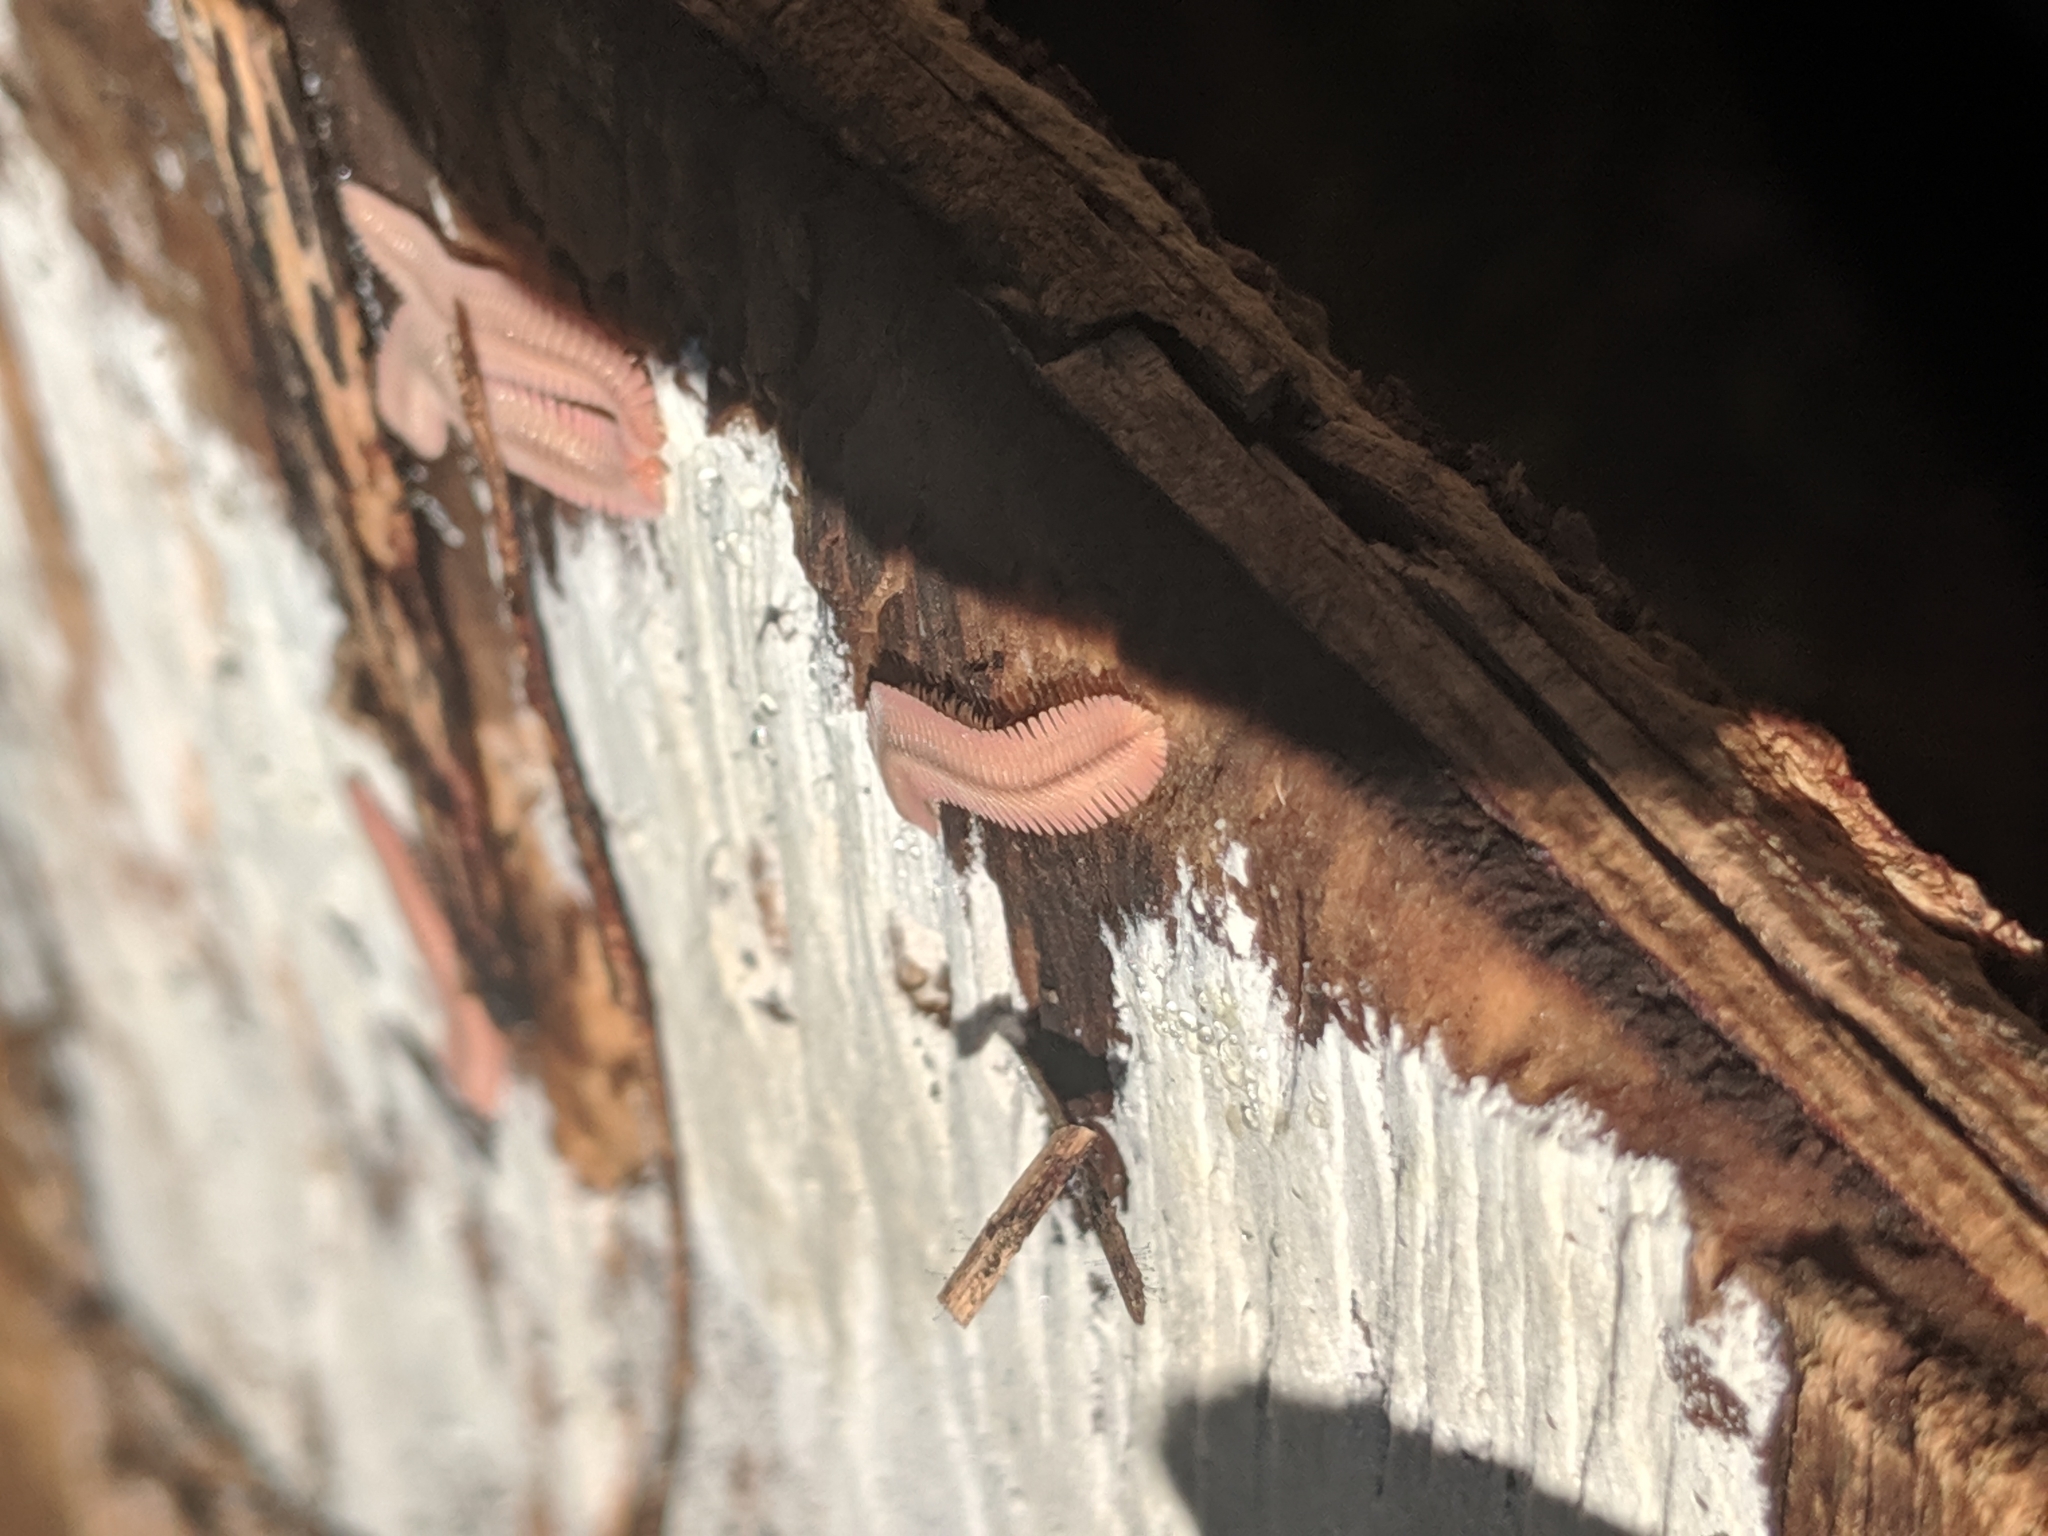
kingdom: Animalia
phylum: Arthropoda
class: Diplopoda
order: Platydesmida
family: Andrognathidae
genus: Brachycybe
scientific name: Brachycybe lecontii
